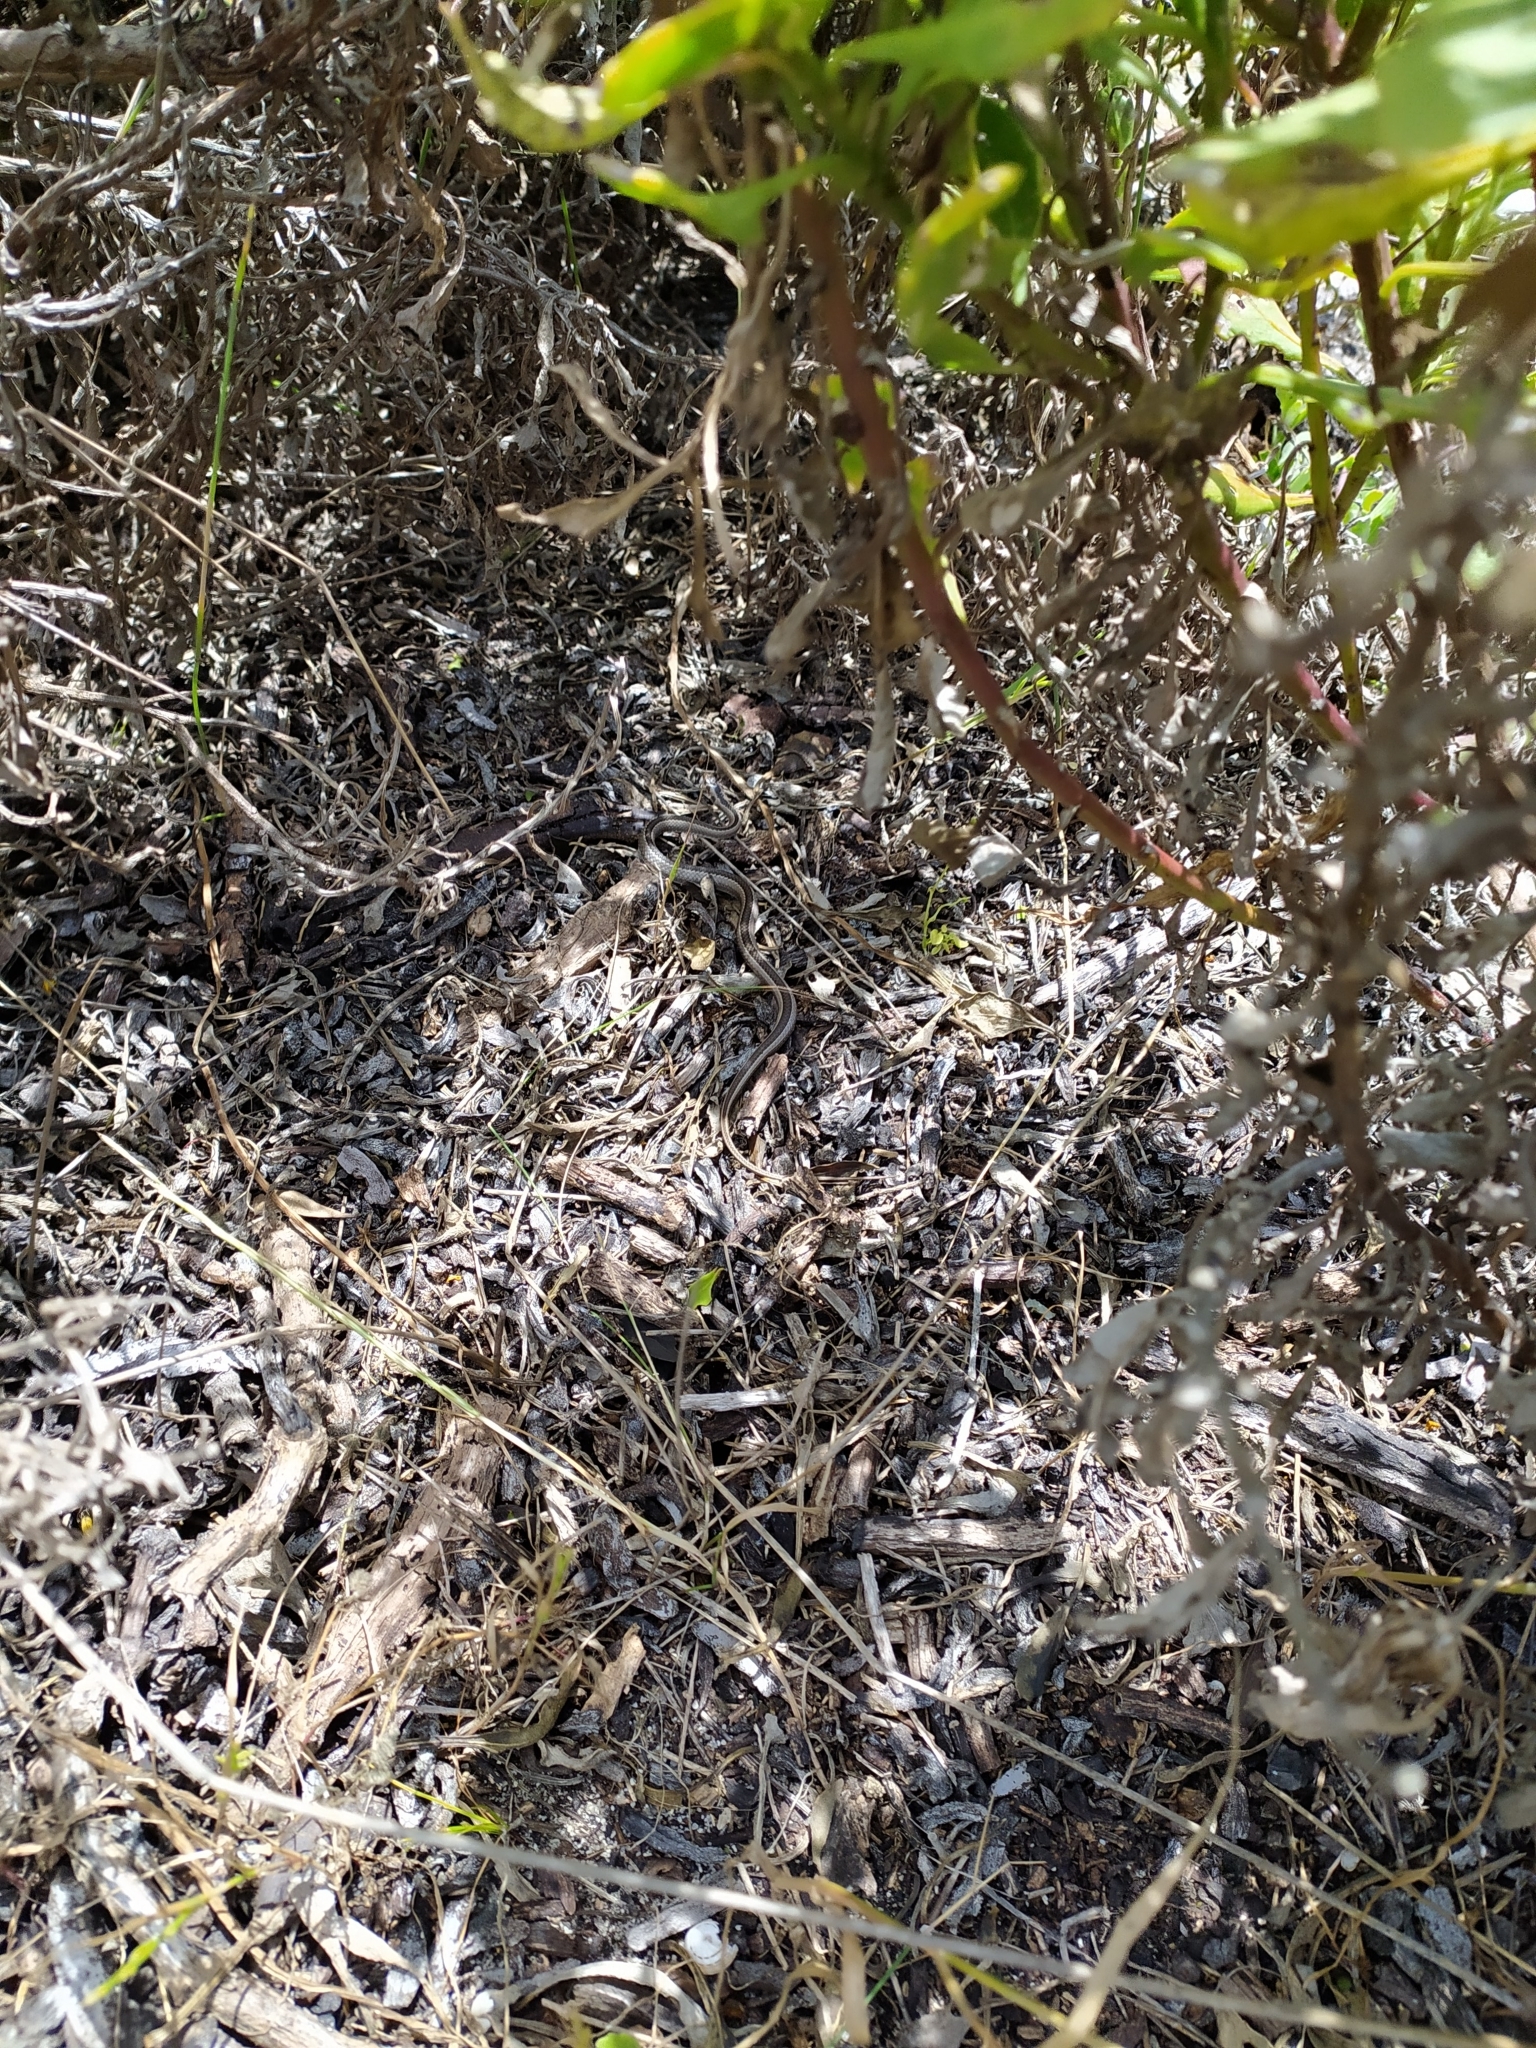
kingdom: Animalia
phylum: Chordata
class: Squamata
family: Psammophiidae
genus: Psammophis
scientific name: Psammophis crucifer
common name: Cross-marked grass snake
